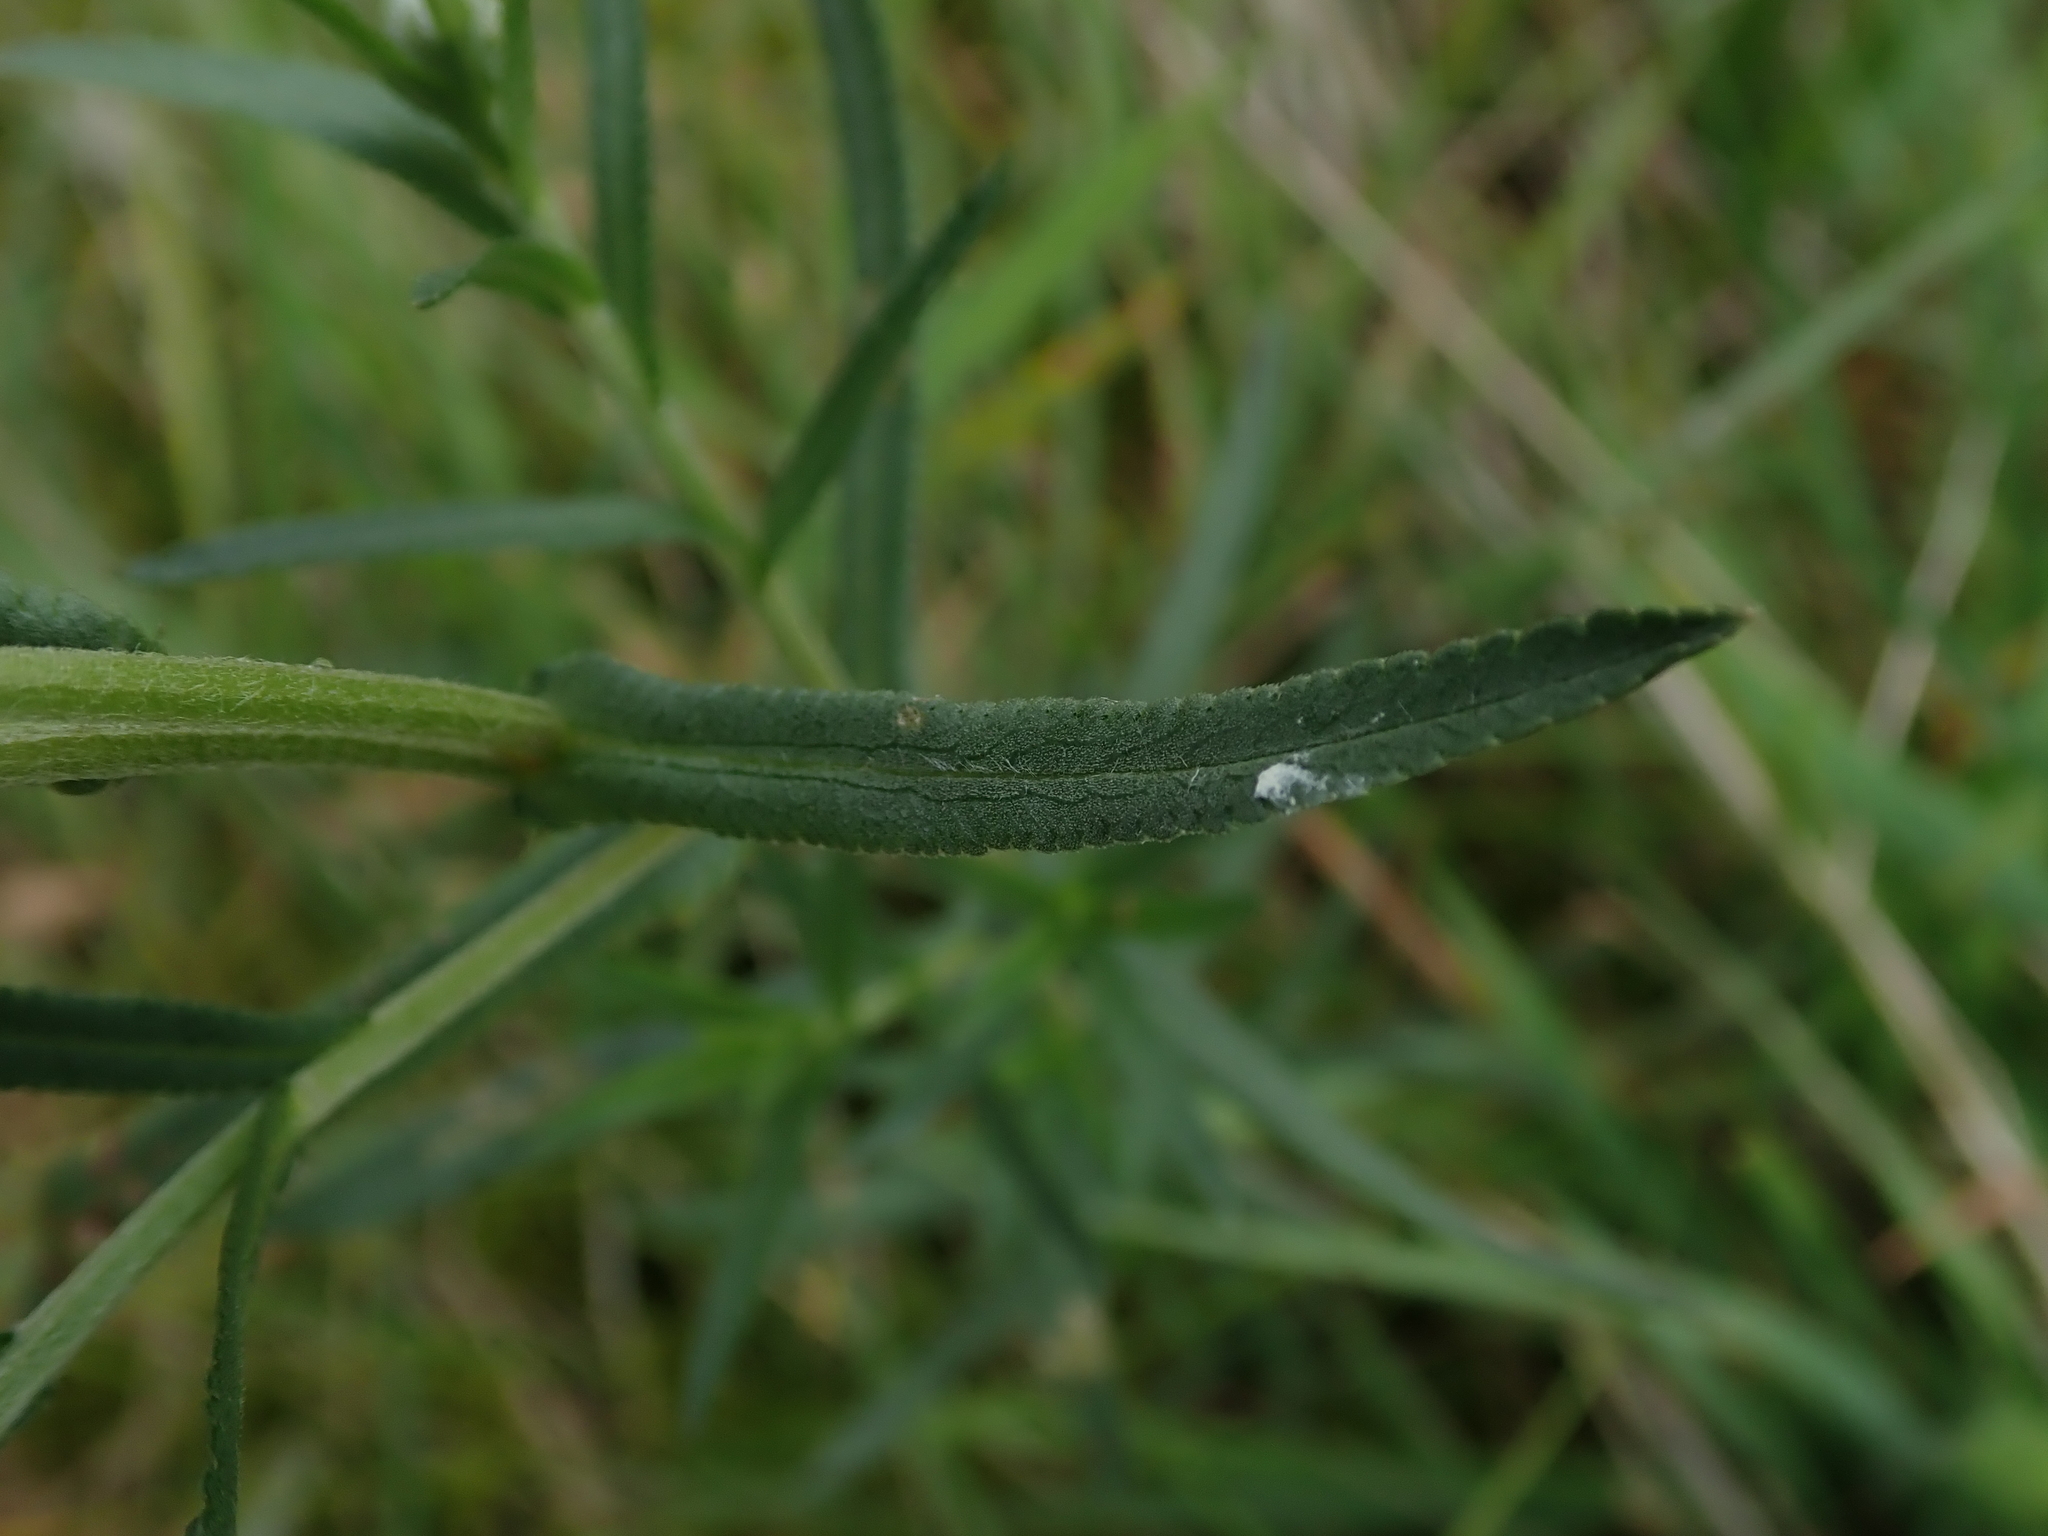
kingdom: Plantae
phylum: Tracheophyta
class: Magnoliopsida
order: Asterales
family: Asteraceae
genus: Achillea
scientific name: Achillea ptarmica
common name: Sneezeweed
